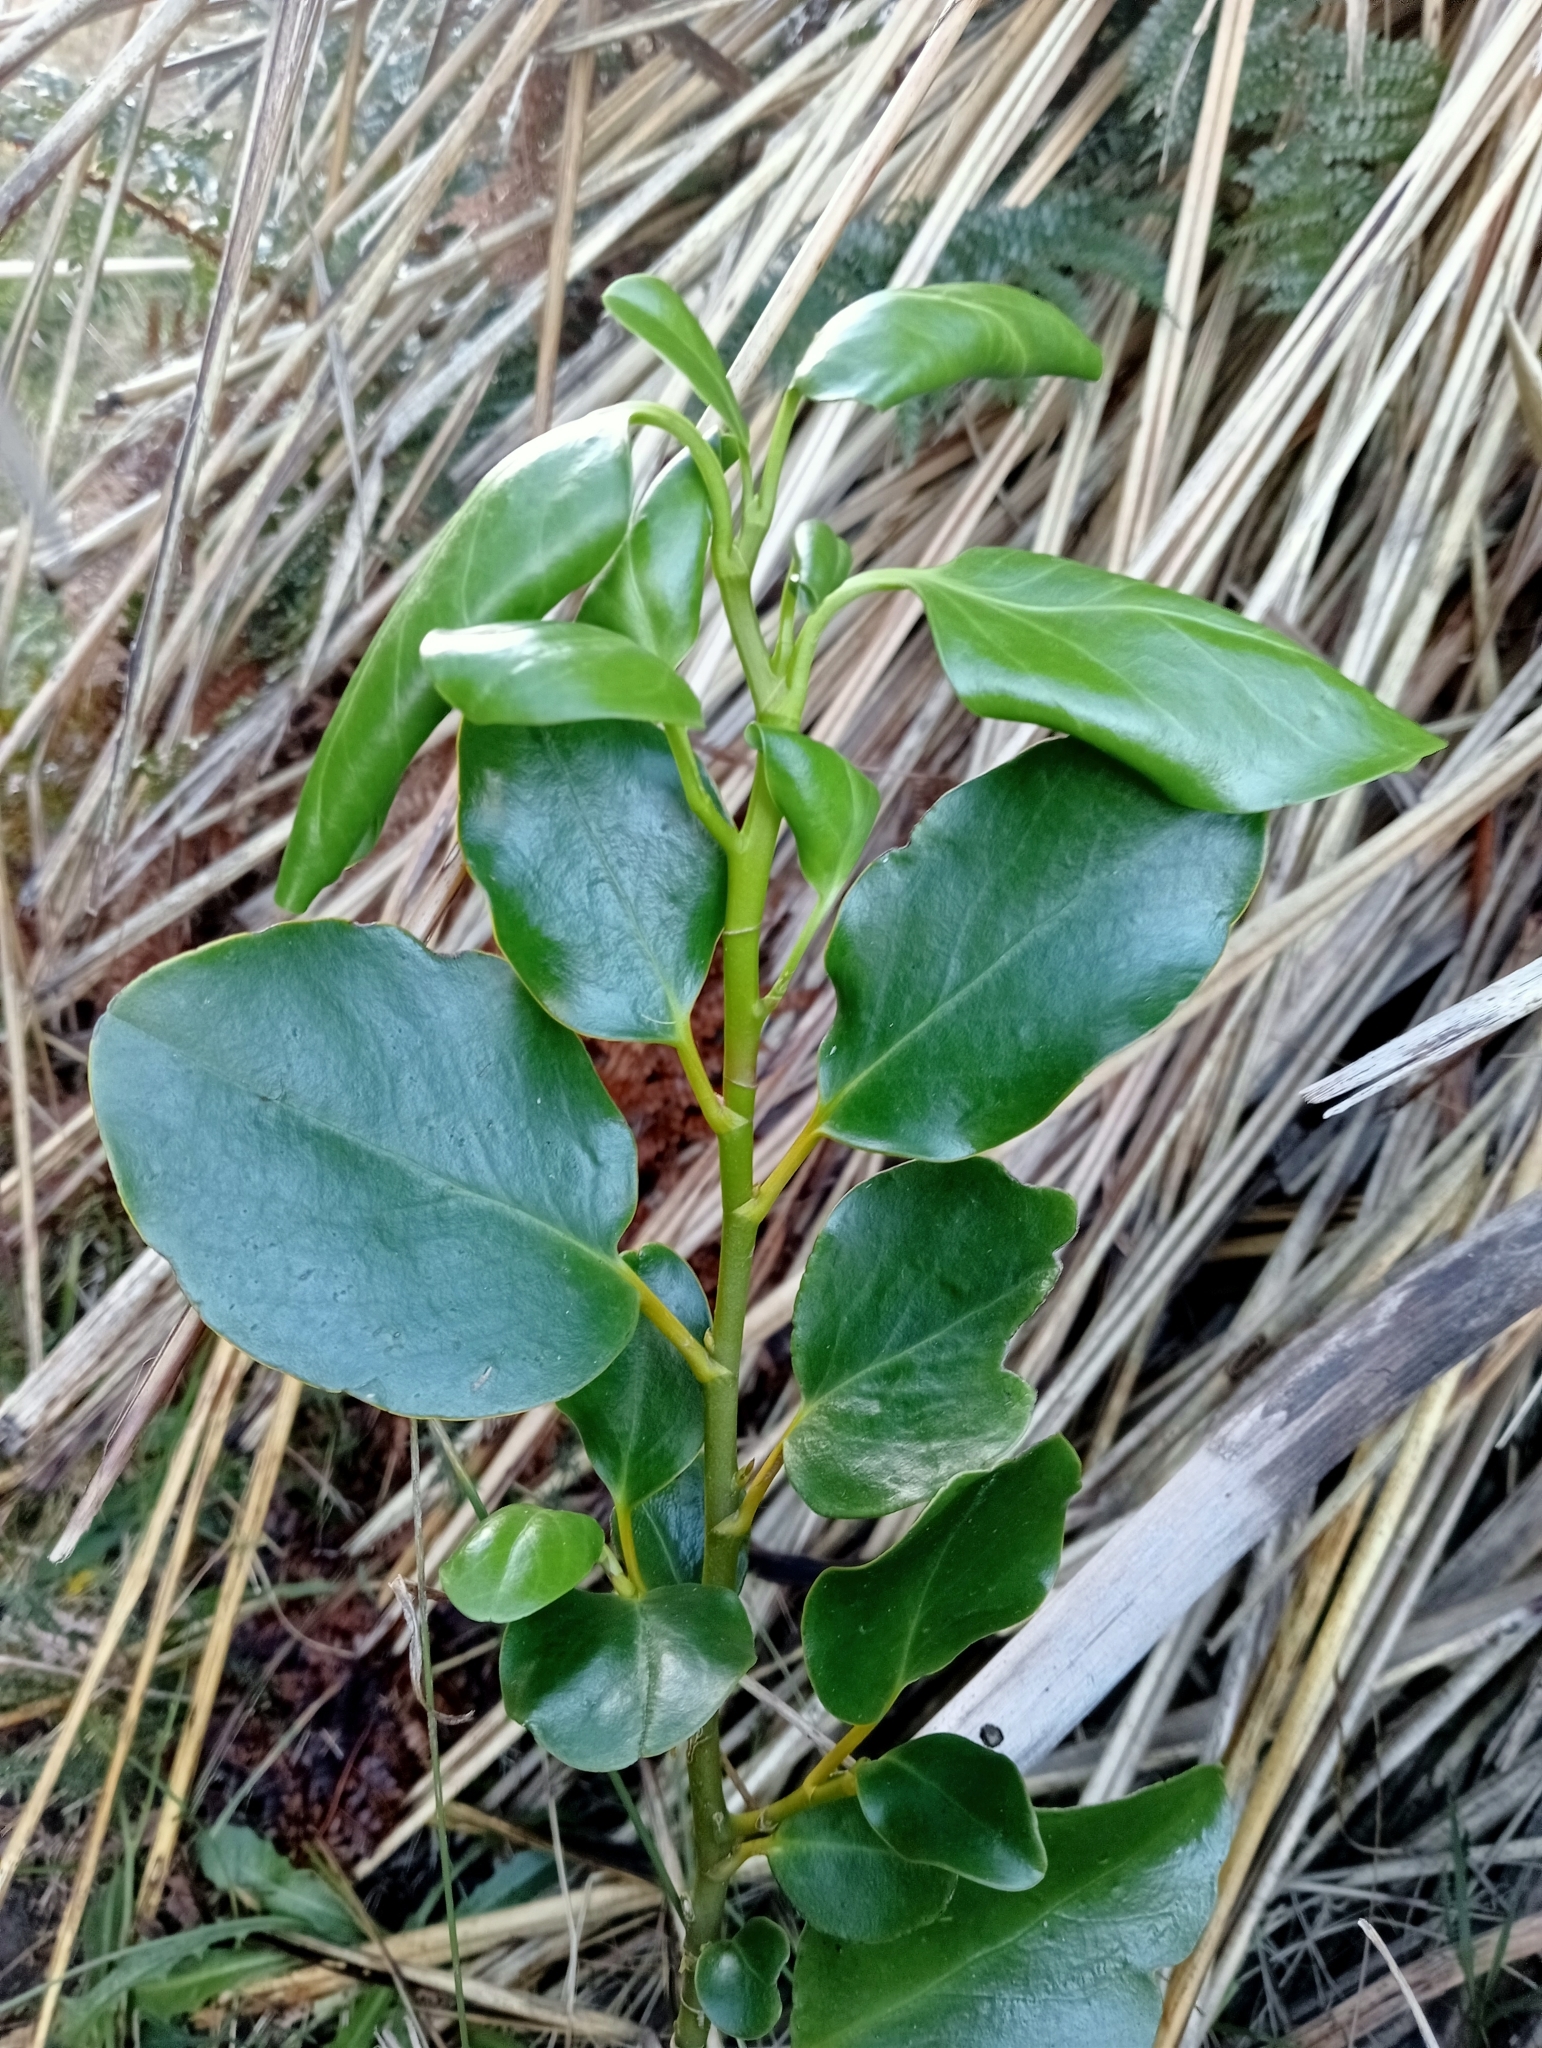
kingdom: Plantae
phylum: Tracheophyta
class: Magnoliopsida
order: Apiales
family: Griseliniaceae
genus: Griselinia
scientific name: Griselinia littoralis
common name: New zealand broadleaf
